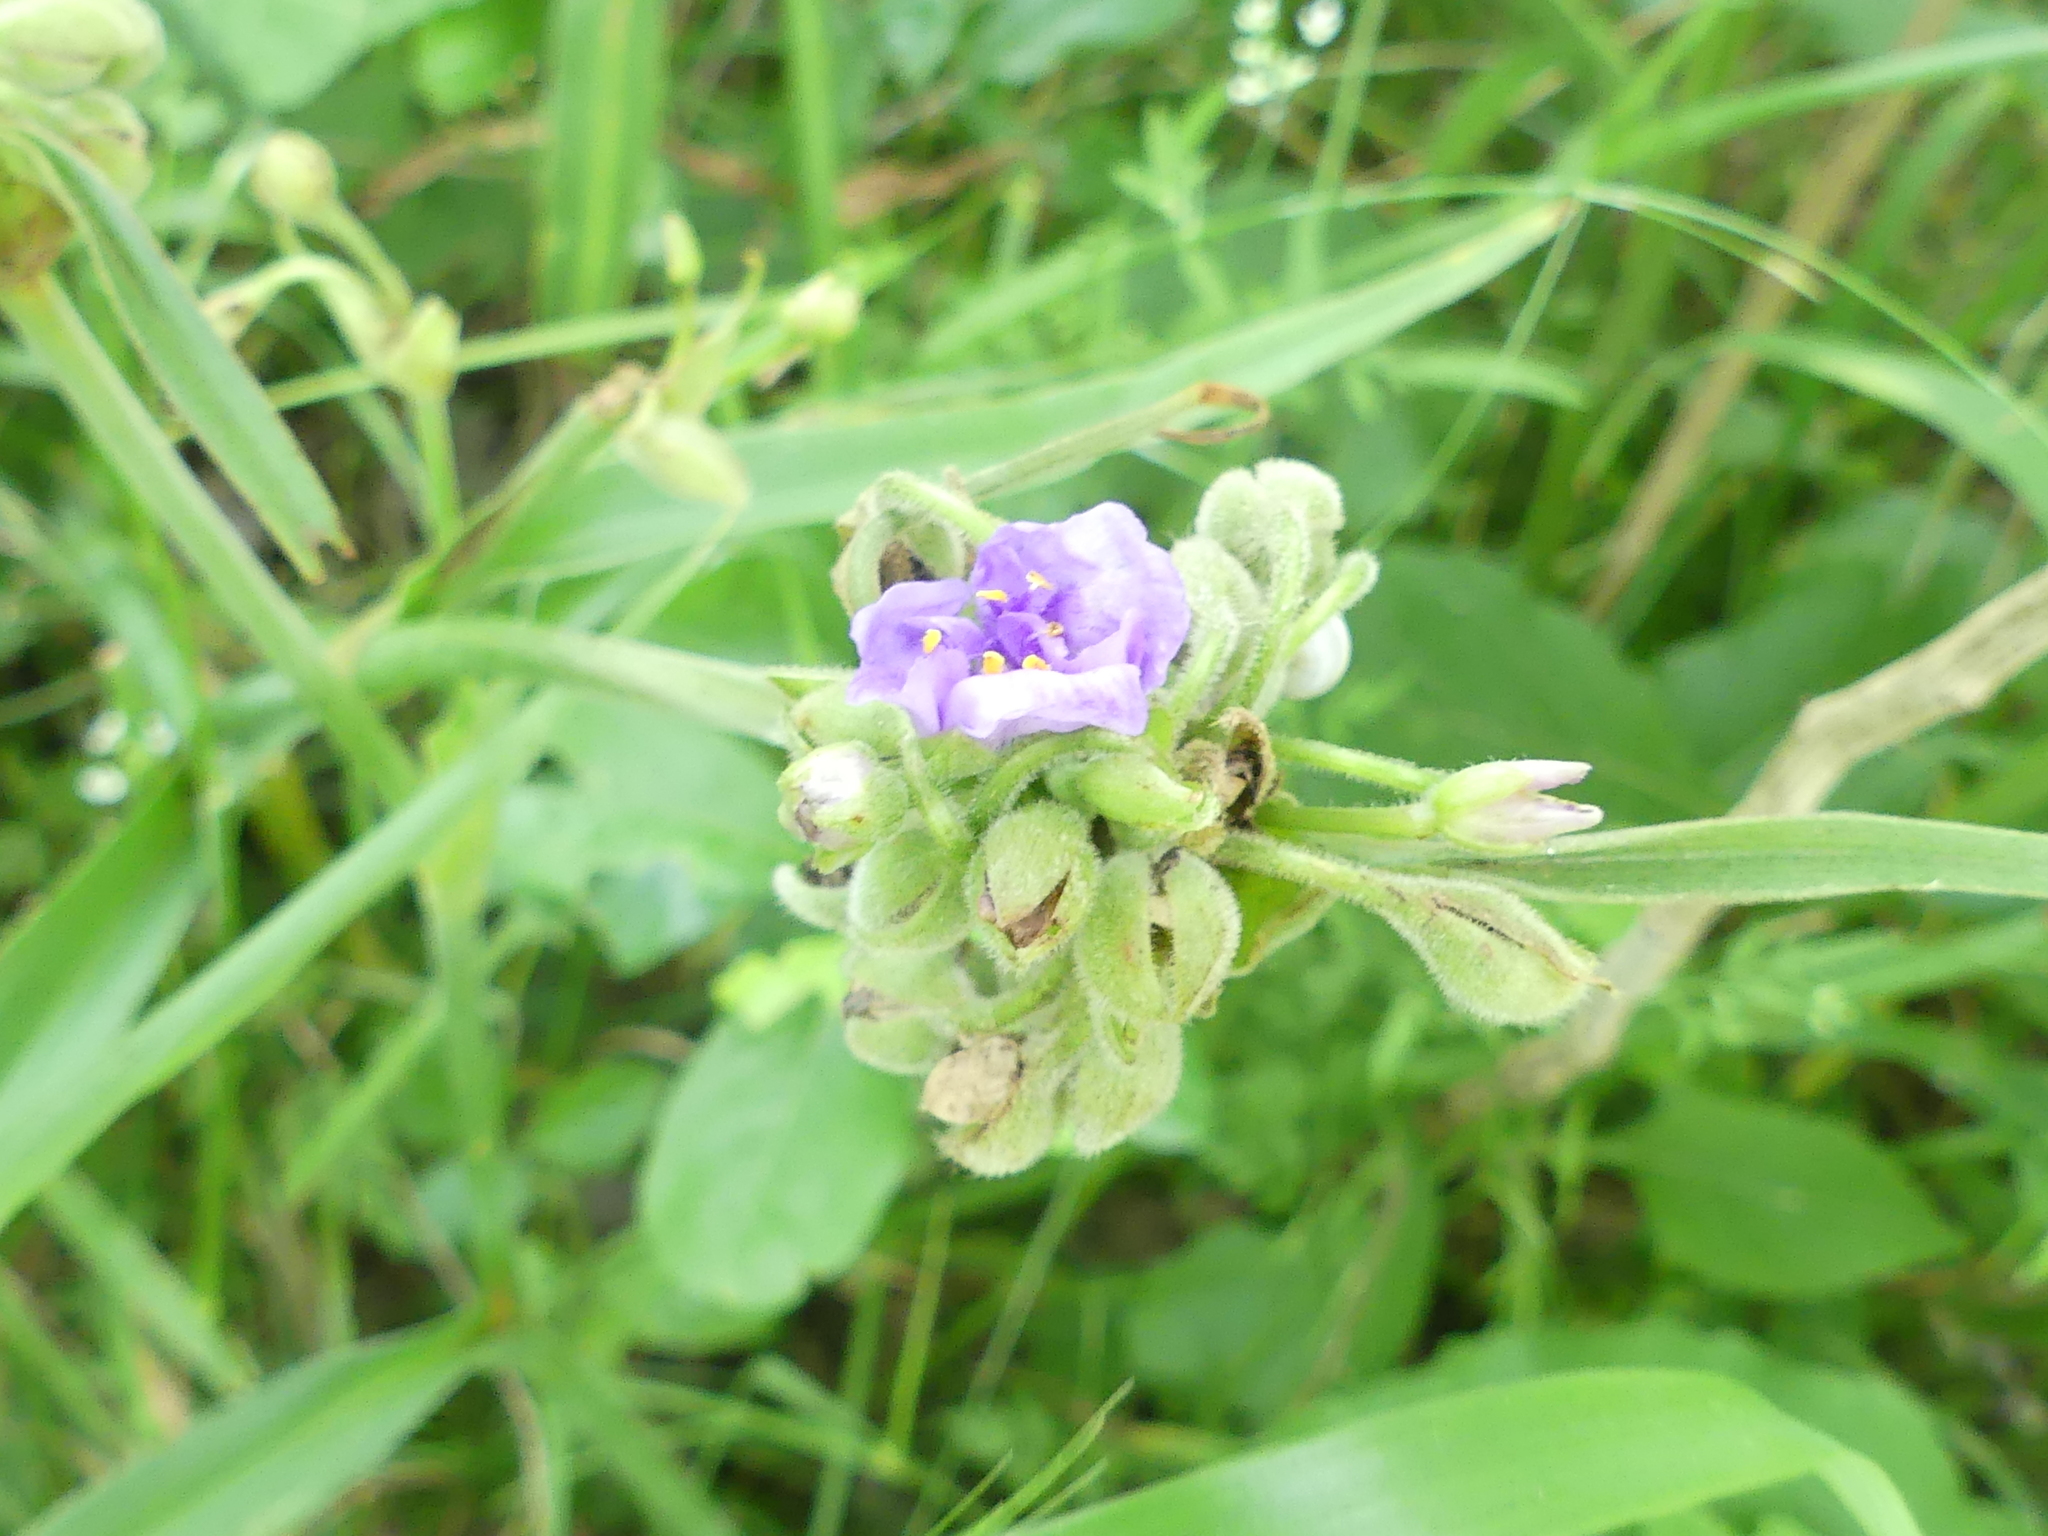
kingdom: Plantae
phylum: Tracheophyta
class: Liliopsida
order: Commelinales
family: Commelinaceae
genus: Tradescantia
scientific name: Tradescantia gigantea
